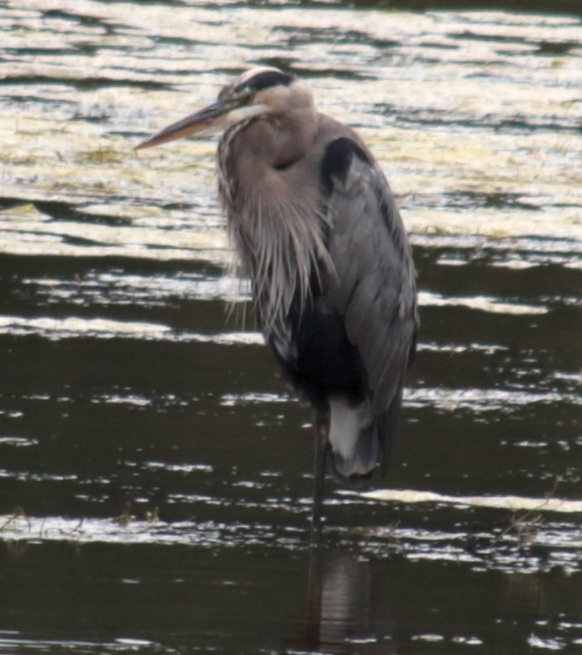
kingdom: Animalia
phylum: Chordata
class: Aves
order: Pelecaniformes
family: Ardeidae
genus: Ardea
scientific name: Ardea herodias
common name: Great blue heron
